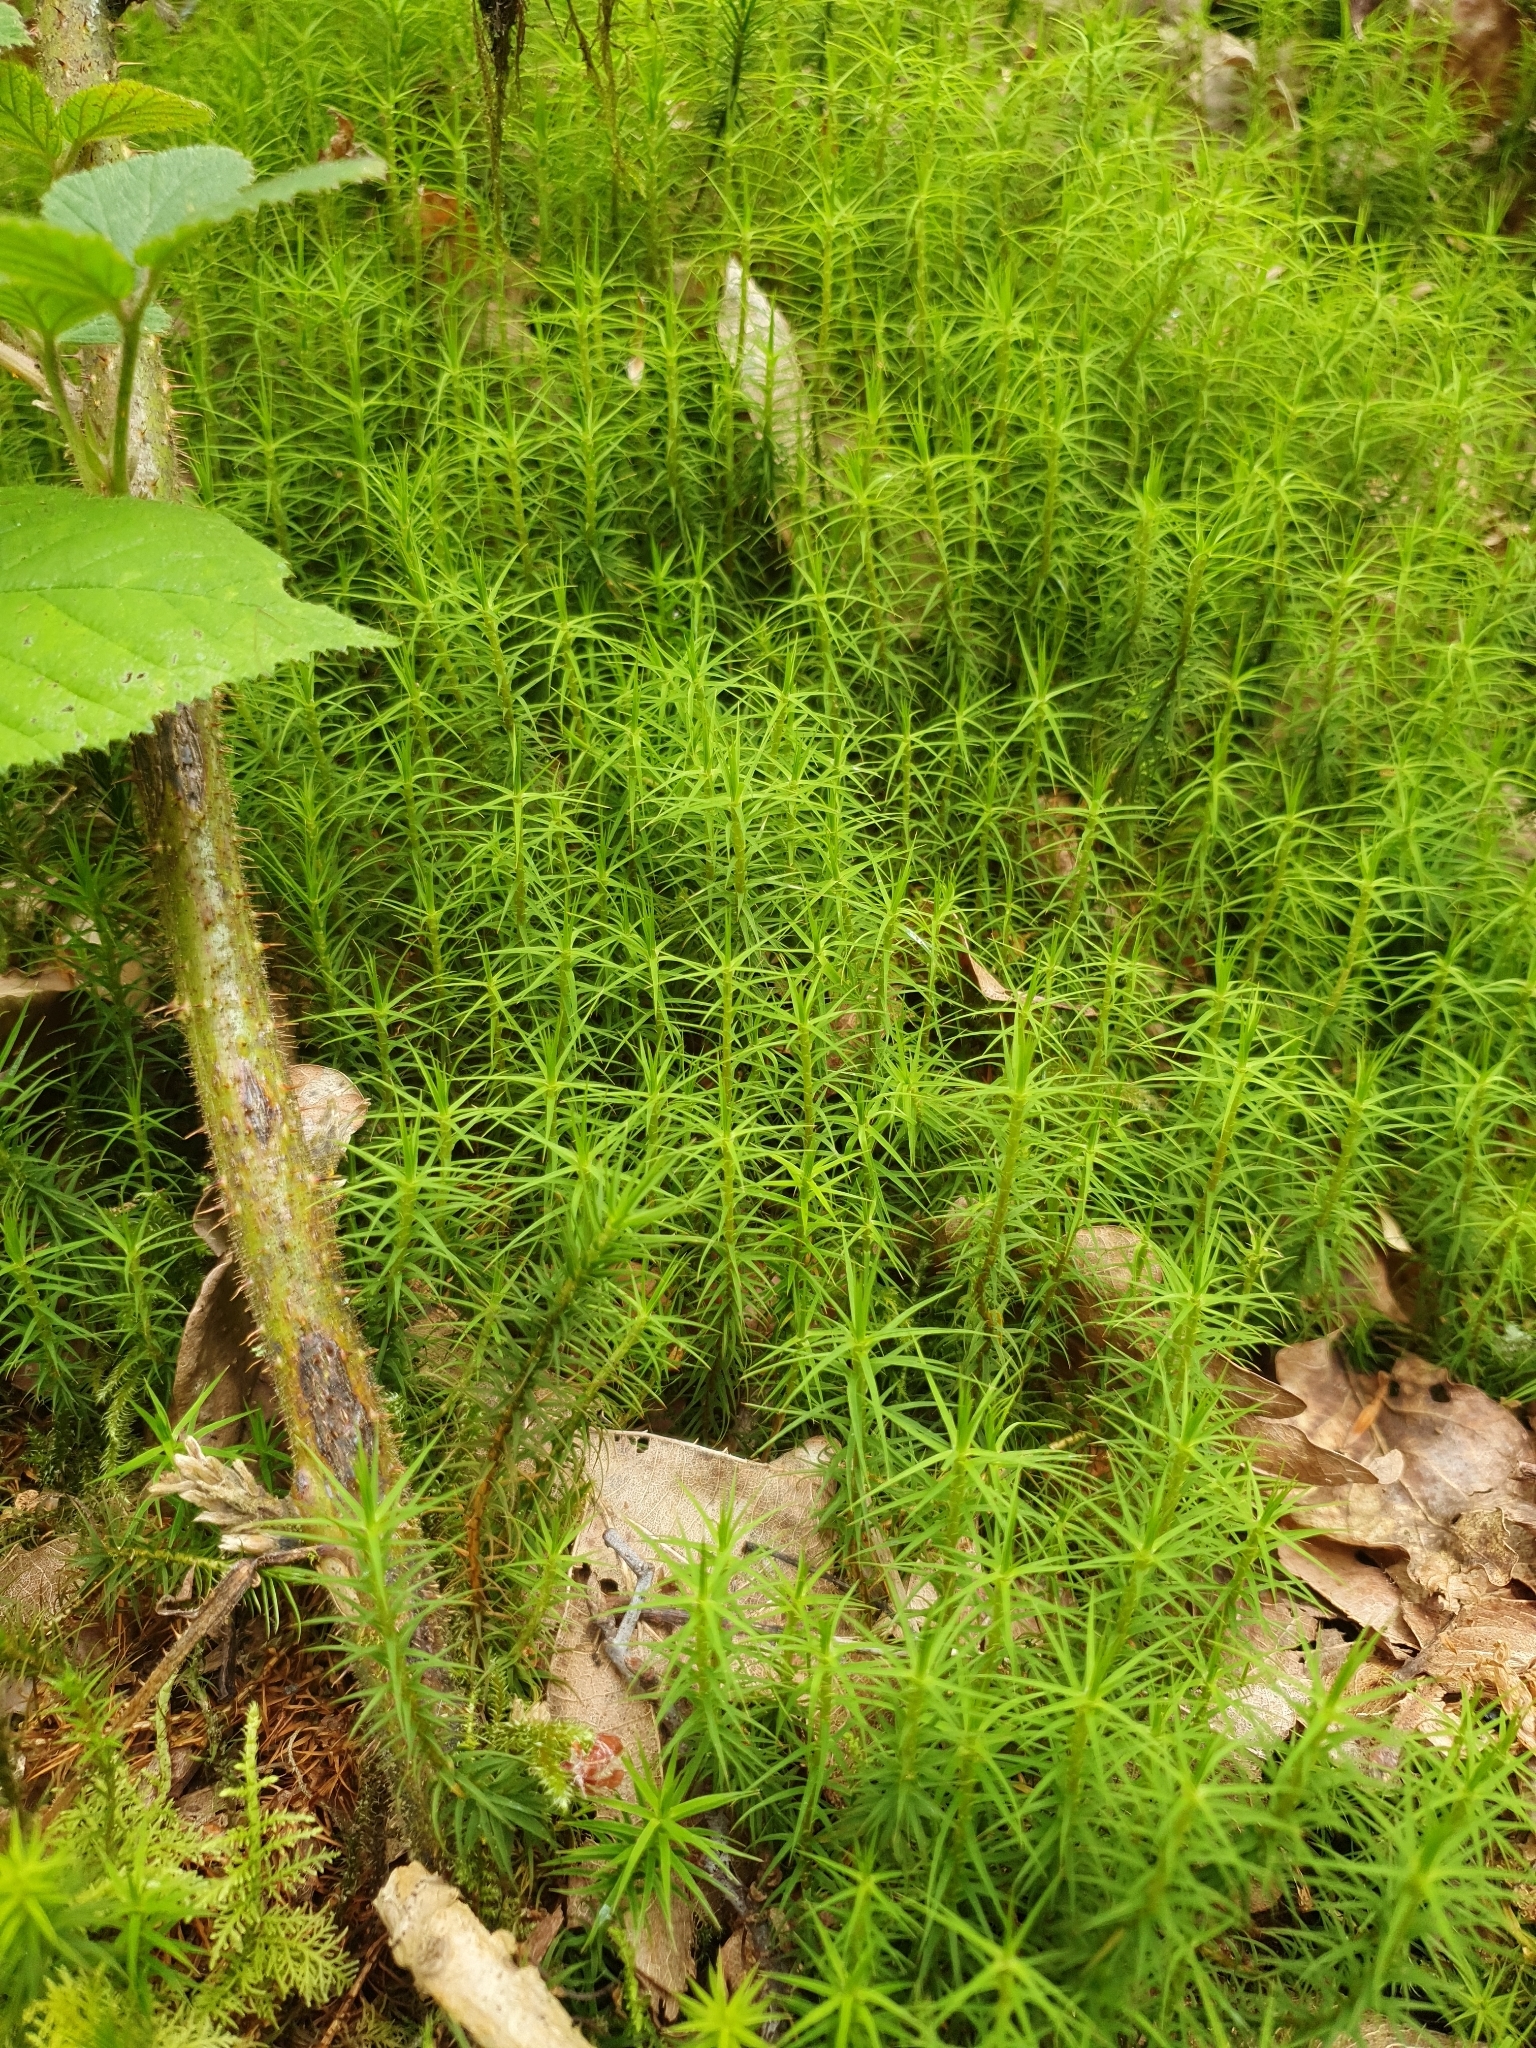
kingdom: Plantae
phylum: Bryophyta
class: Polytrichopsida
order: Polytrichales
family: Polytrichaceae
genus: Polytrichum
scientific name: Polytrichum commune
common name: Common haircap
